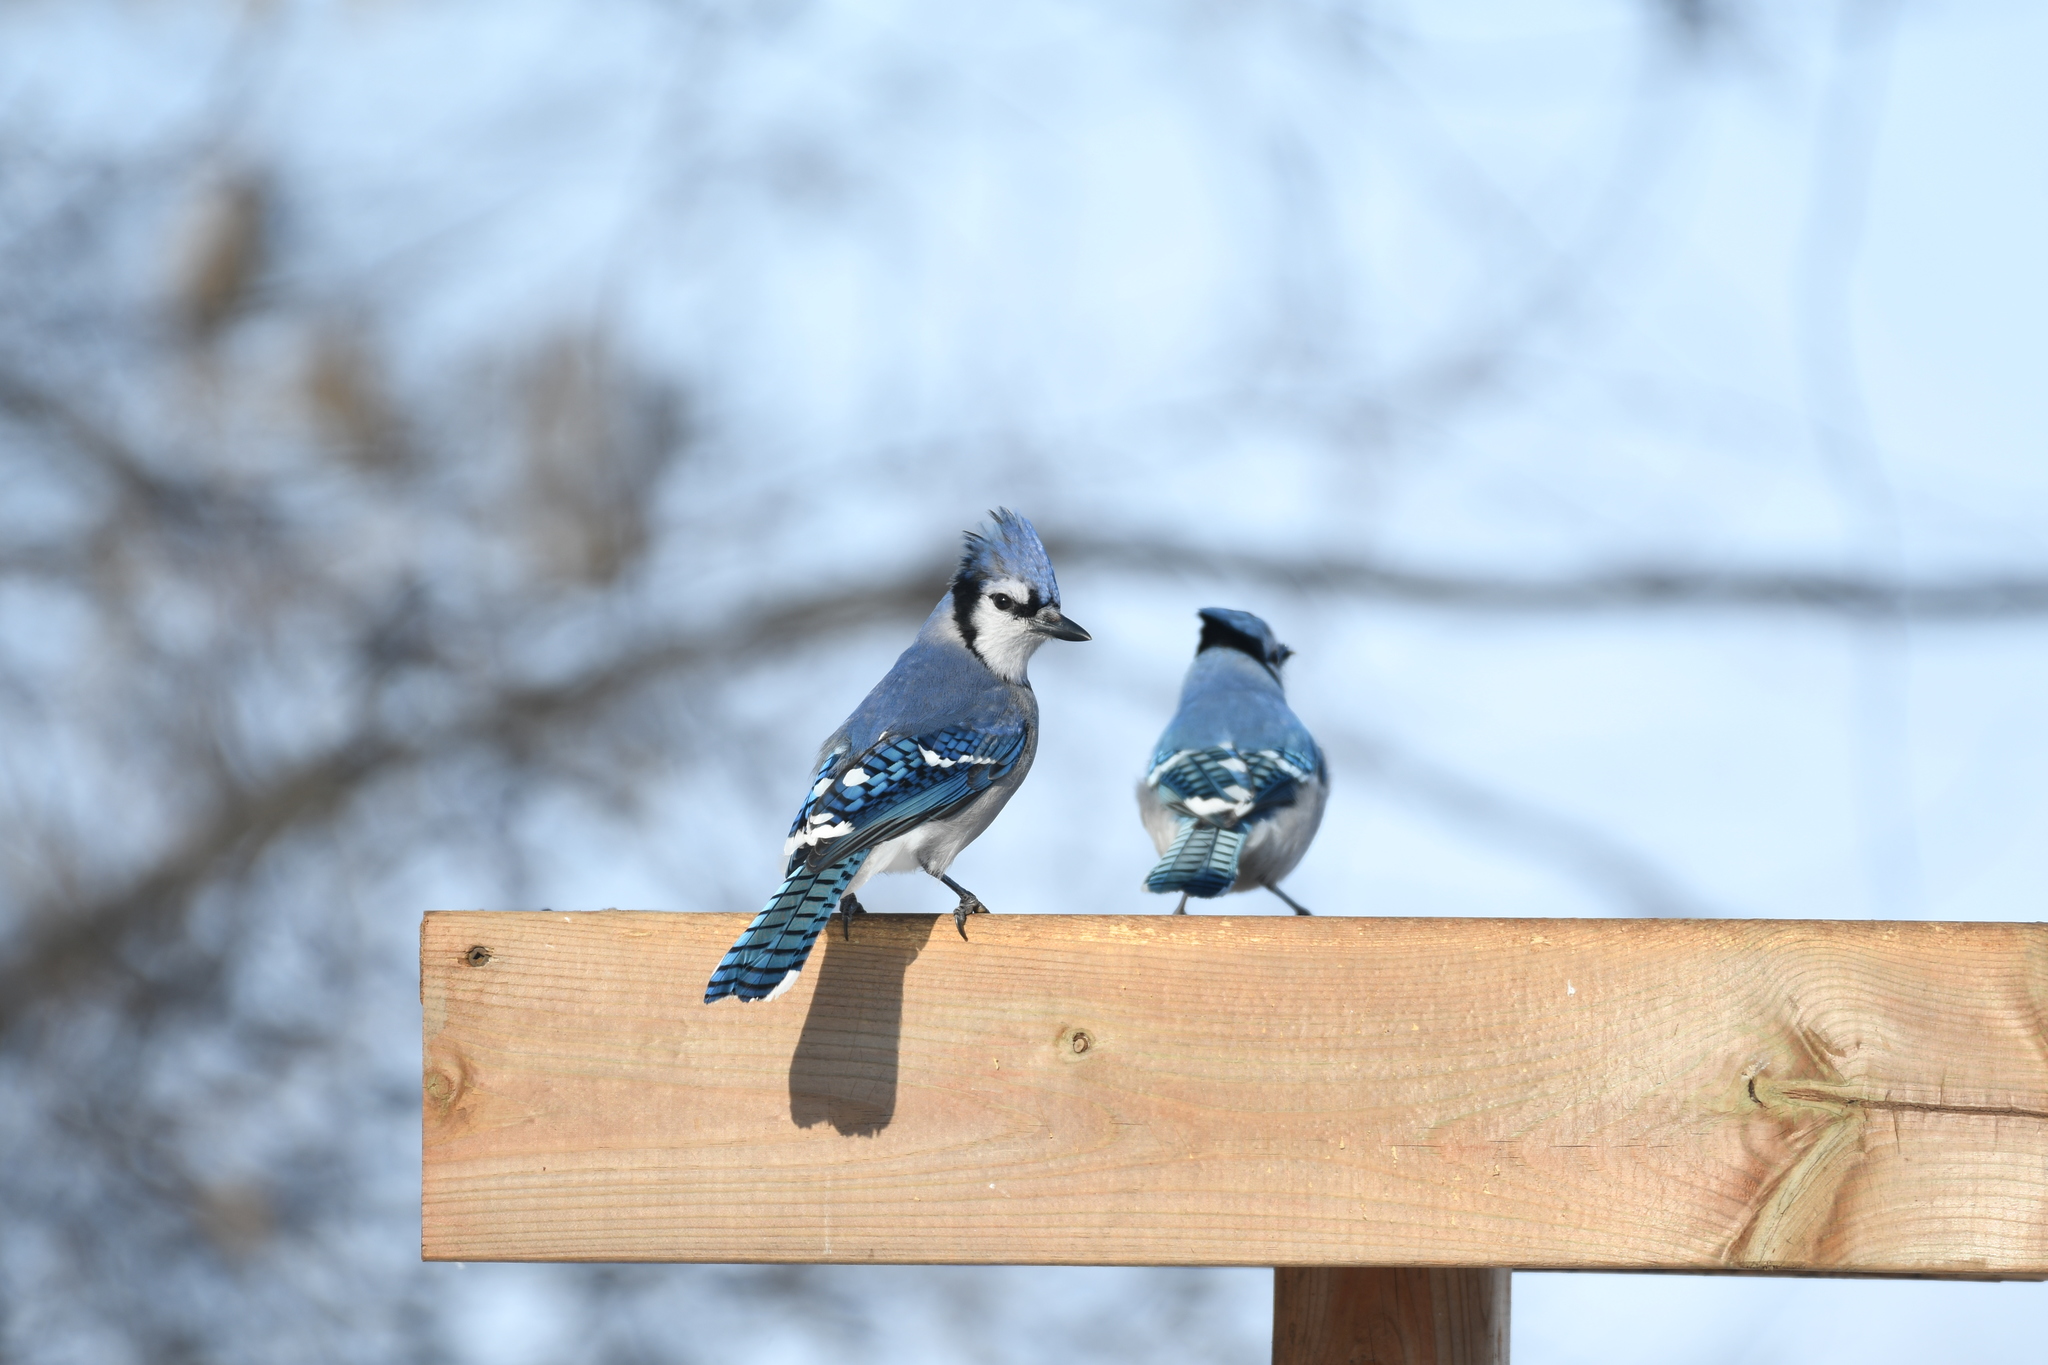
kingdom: Animalia
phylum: Chordata
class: Aves
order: Passeriformes
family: Corvidae
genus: Cyanocitta
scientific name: Cyanocitta cristata
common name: Blue jay
